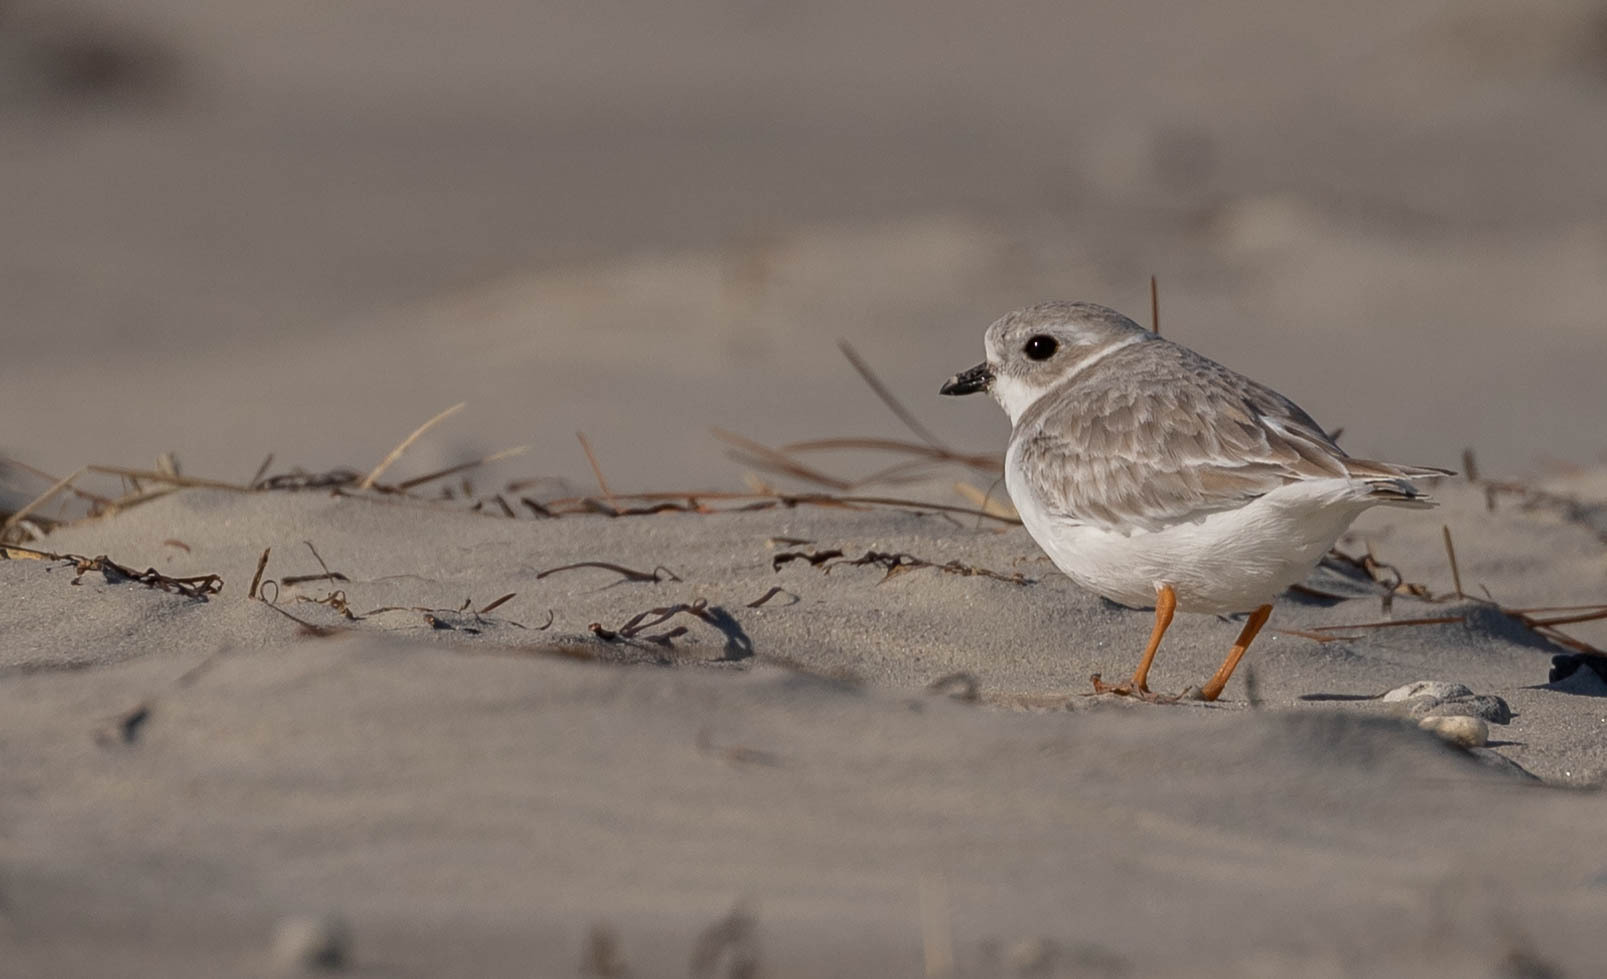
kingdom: Animalia
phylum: Chordata
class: Aves
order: Charadriiformes
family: Charadriidae
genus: Charadrius
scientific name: Charadrius melodus
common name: Piping plover
